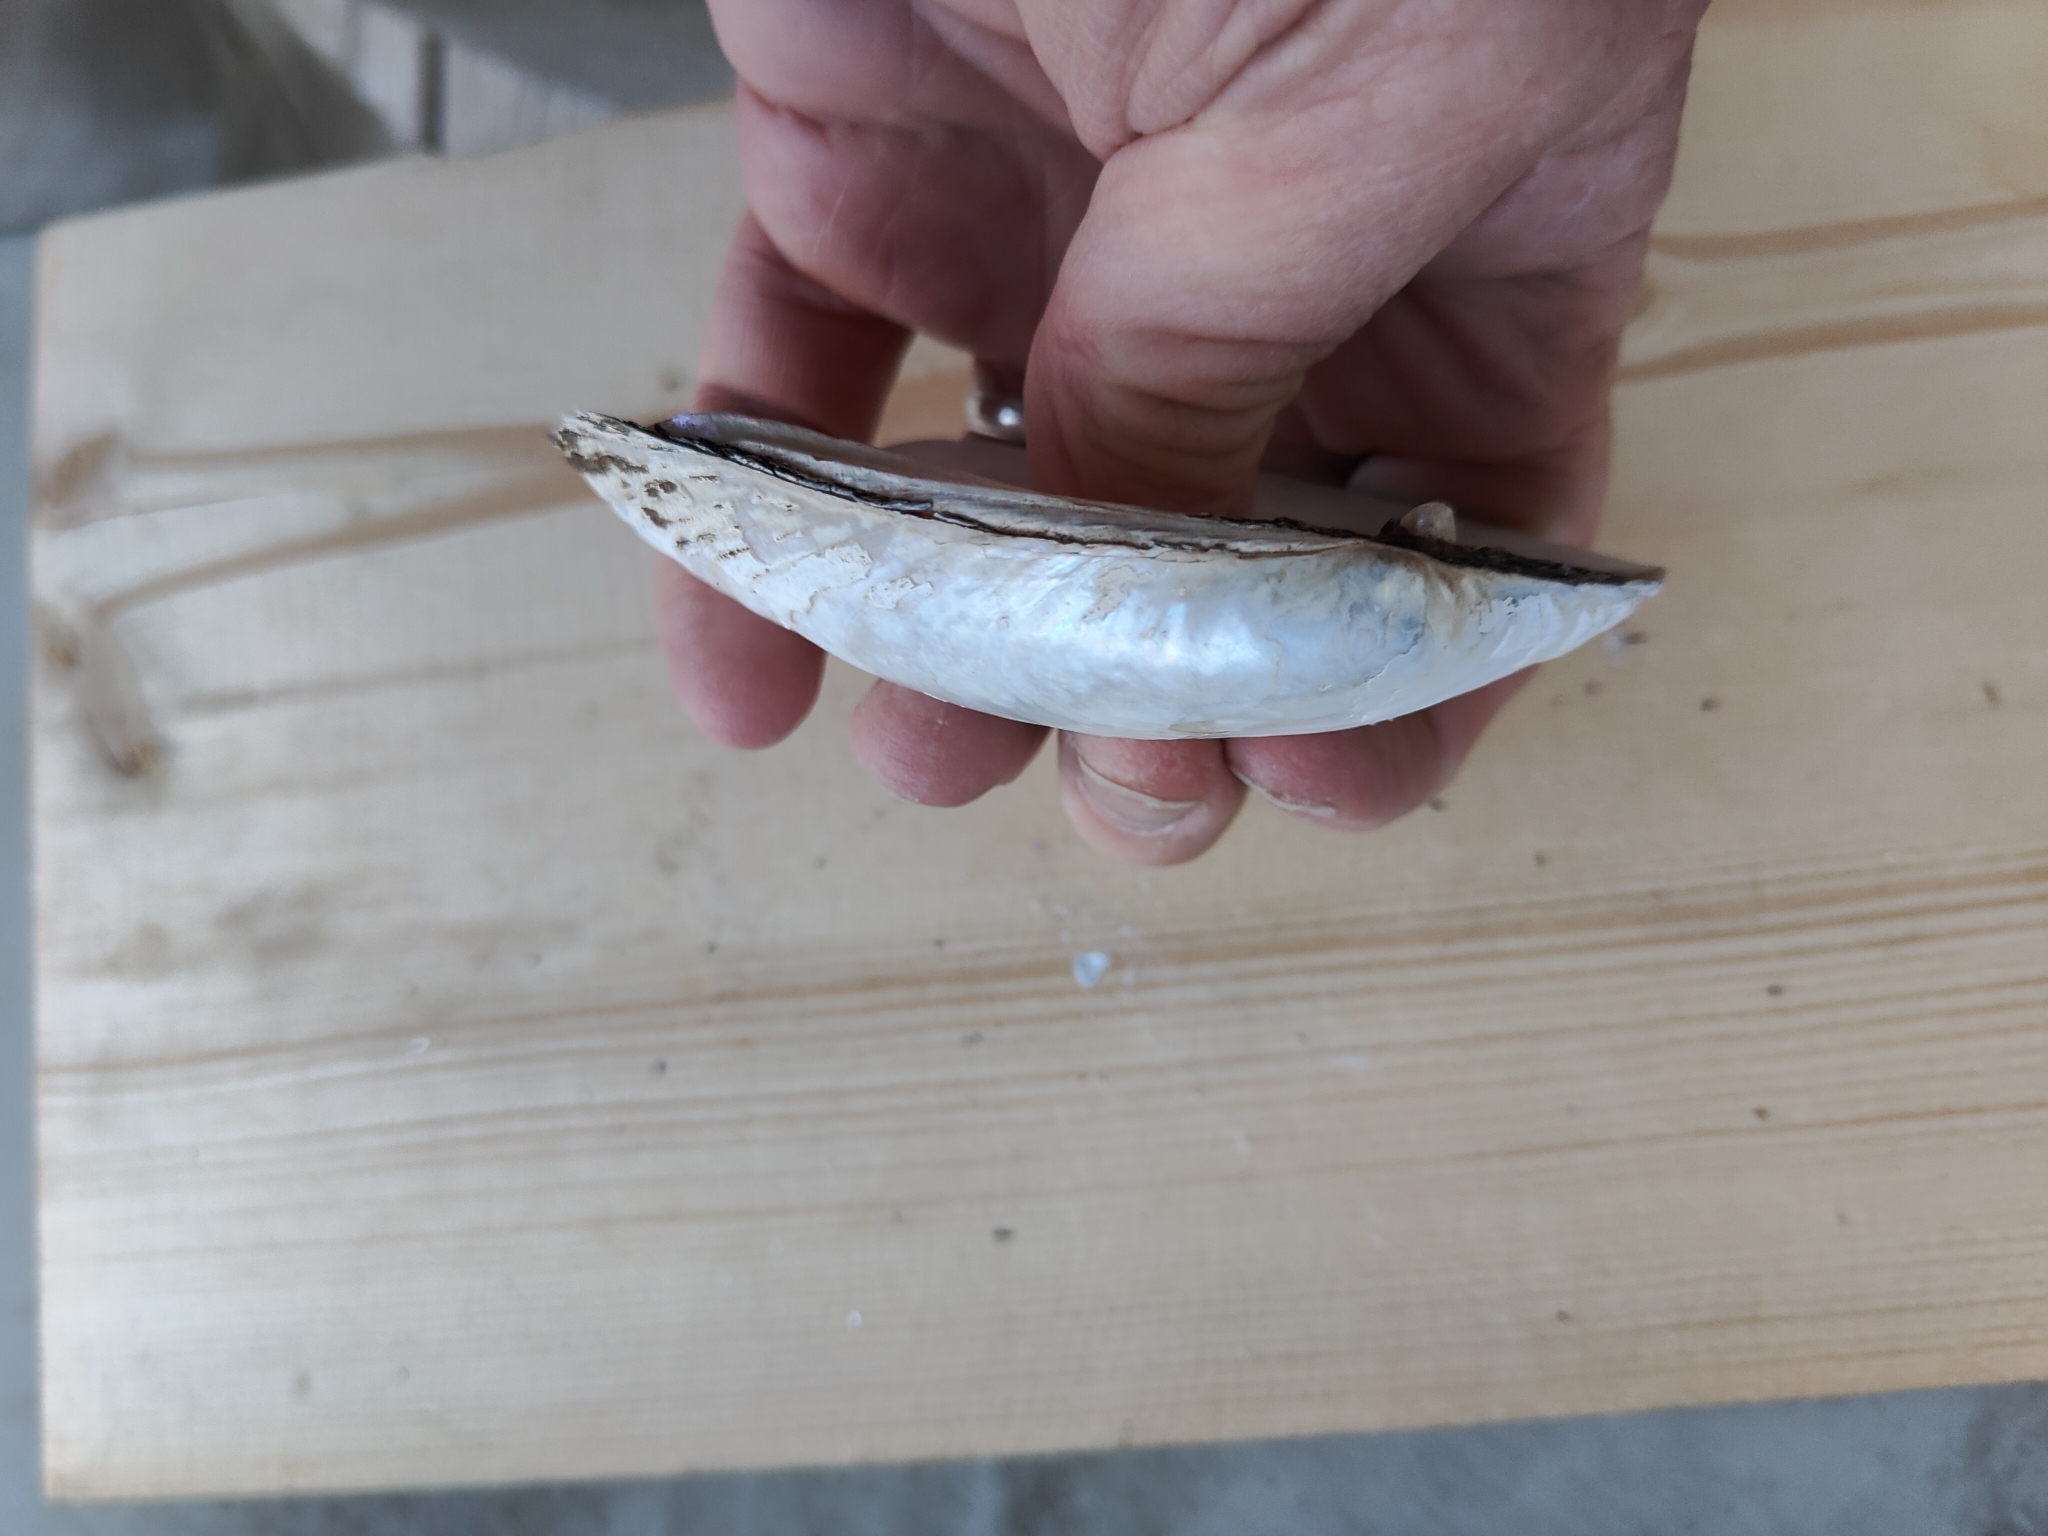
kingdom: Animalia
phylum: Mollusca
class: Bivalvia
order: Unionida
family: Unionidae
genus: Lampsilis
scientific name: Lampsilis siliquoidea
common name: Fatmucket
